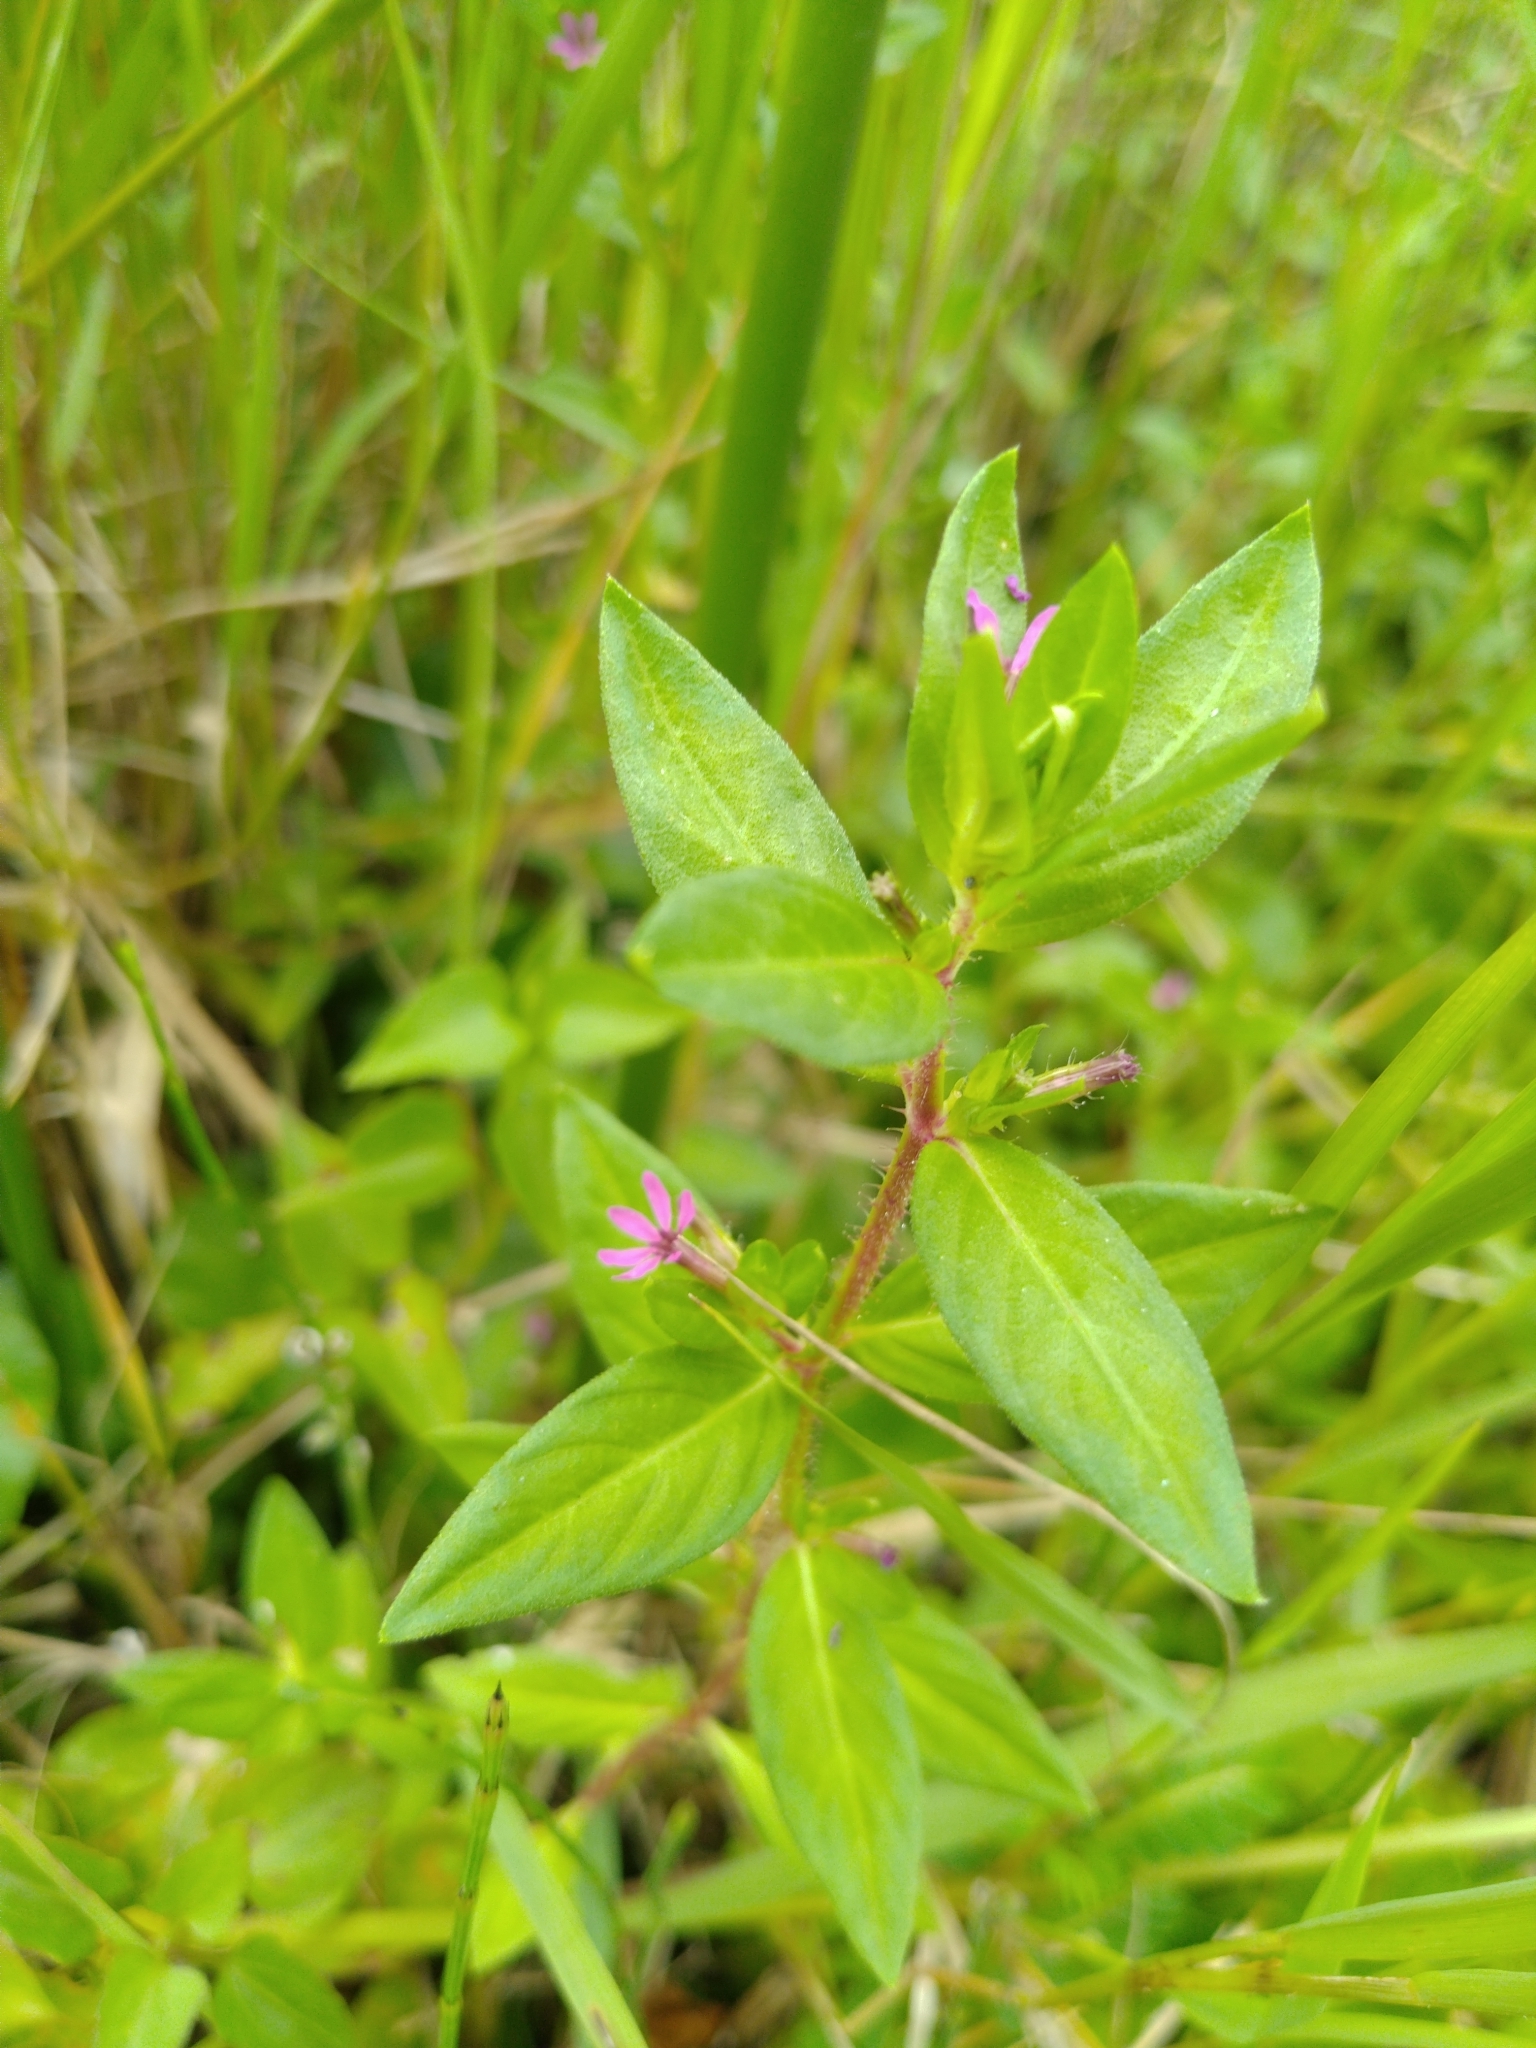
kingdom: Plantae
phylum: Tracheophyta
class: Magnoliopsida
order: Myrtales
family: Lythraceae
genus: Cuphea
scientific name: Cuphea carthagenensis
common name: Colombian waxweed
